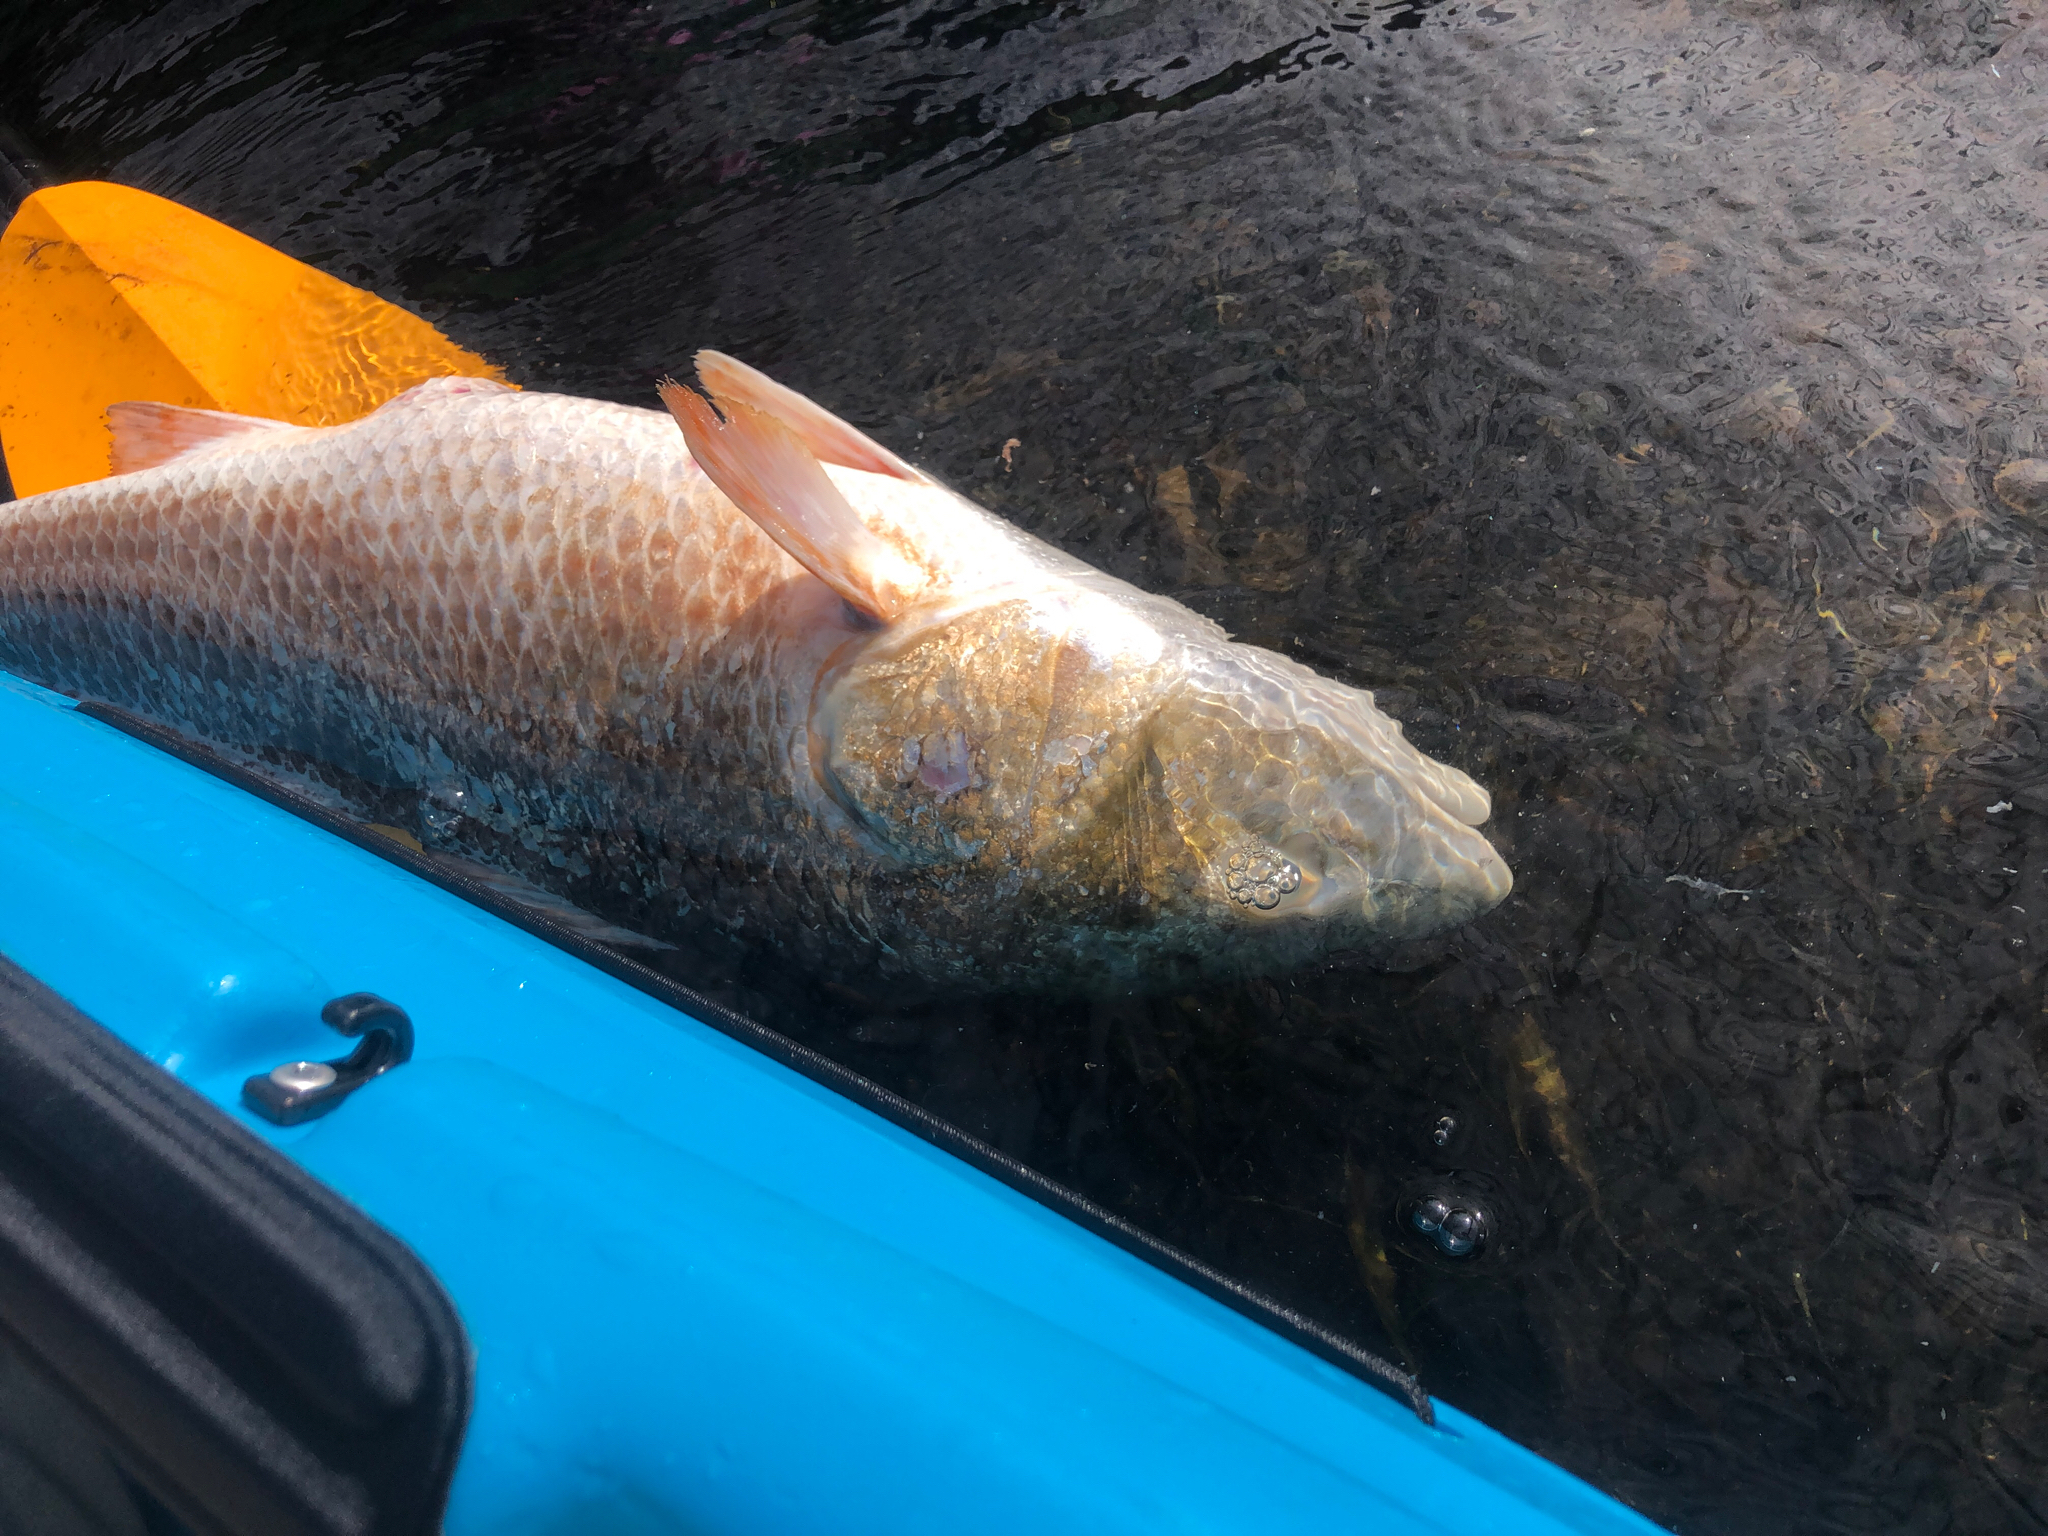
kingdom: Animalia
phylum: Chordata
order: Perciformes
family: Sciaenidae
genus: Sciaenops
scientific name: Sciaenops ocellatus
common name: Red drum
